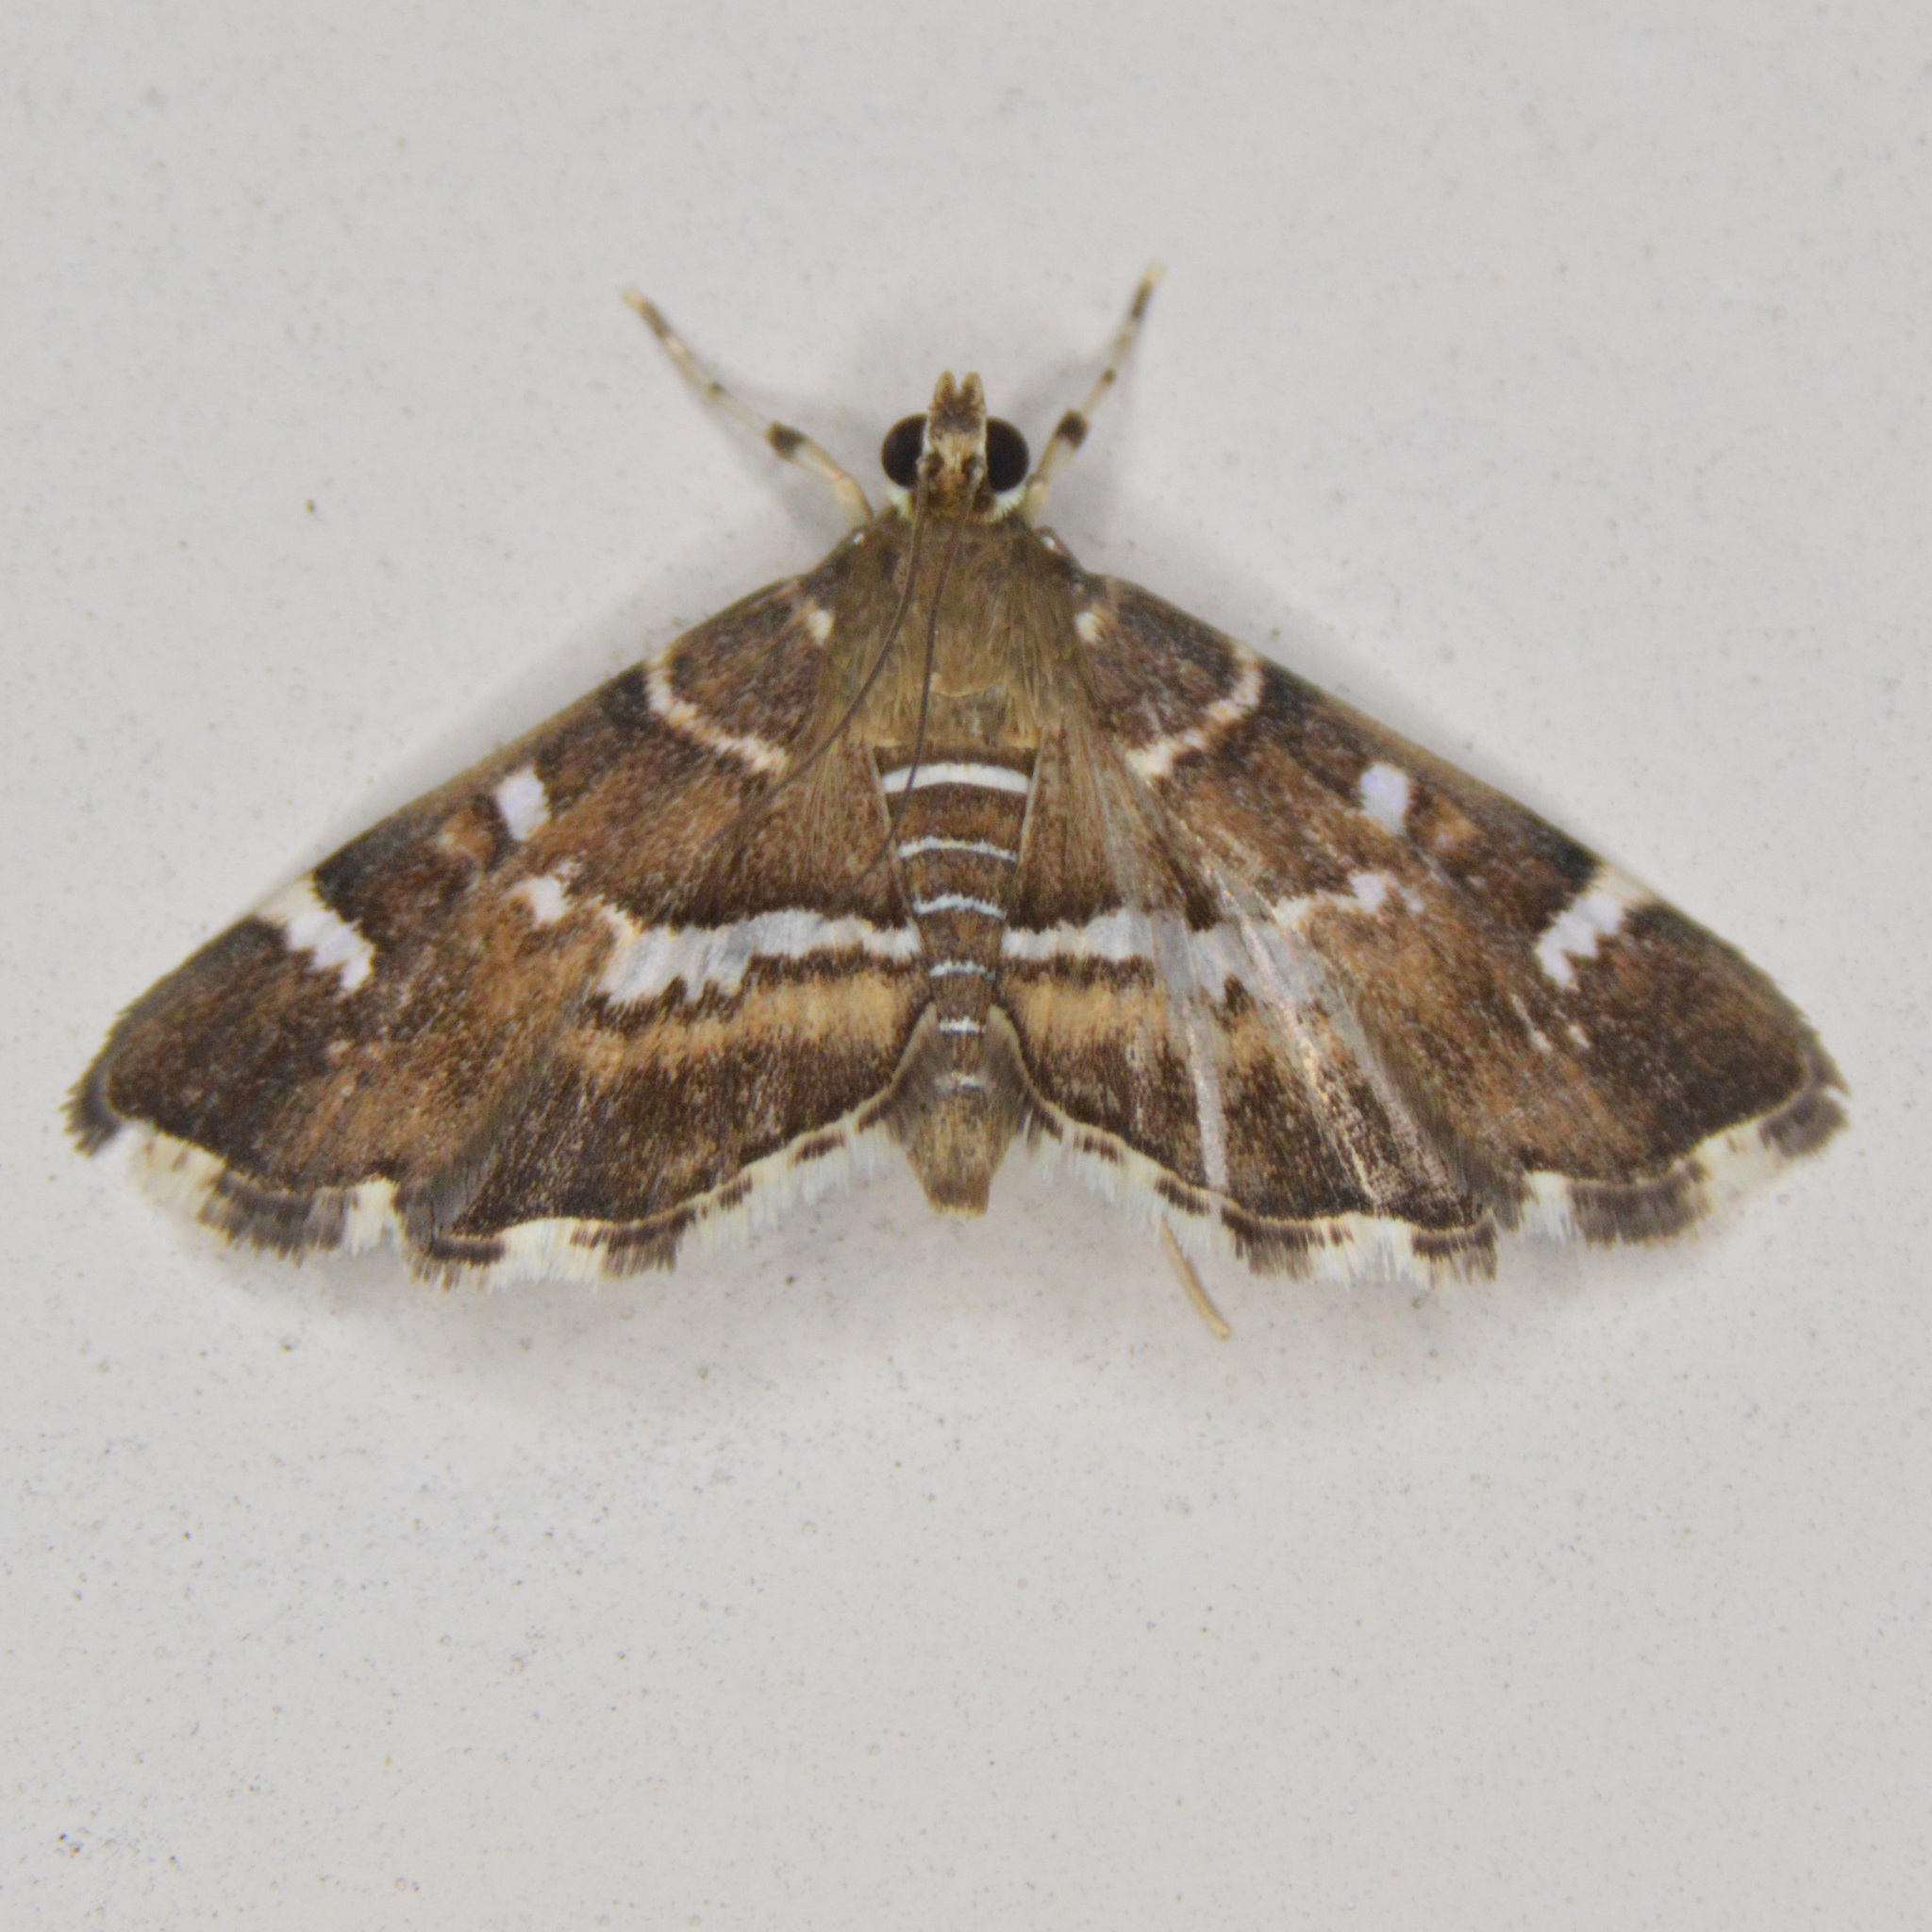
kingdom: Animalia
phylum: Arthropoda
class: Insecta
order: Lepidoptera
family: Crambidae
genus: Hymenia
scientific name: Hymenia perspectalis
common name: Spotted beet webworm
